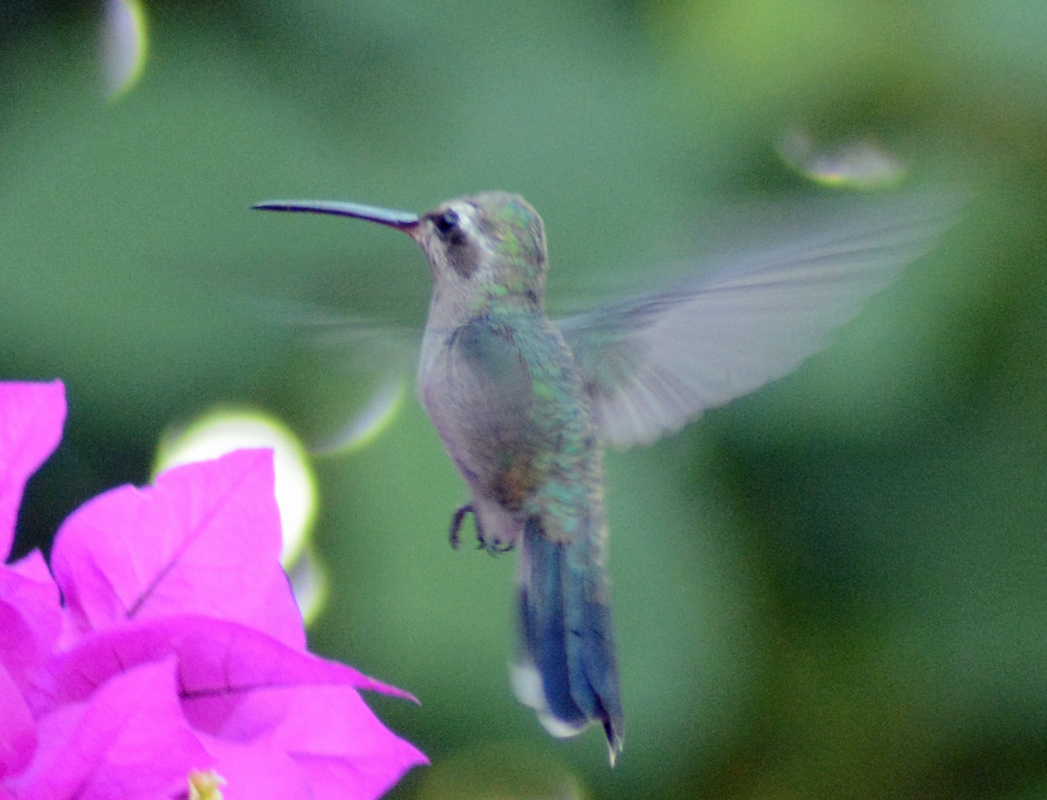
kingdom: Animalia
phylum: Chordata
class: Aves
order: Apodiformes
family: Trochilidae
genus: Cynanthus
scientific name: Cynanthus latirostris
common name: Broad-billed hummingbird
